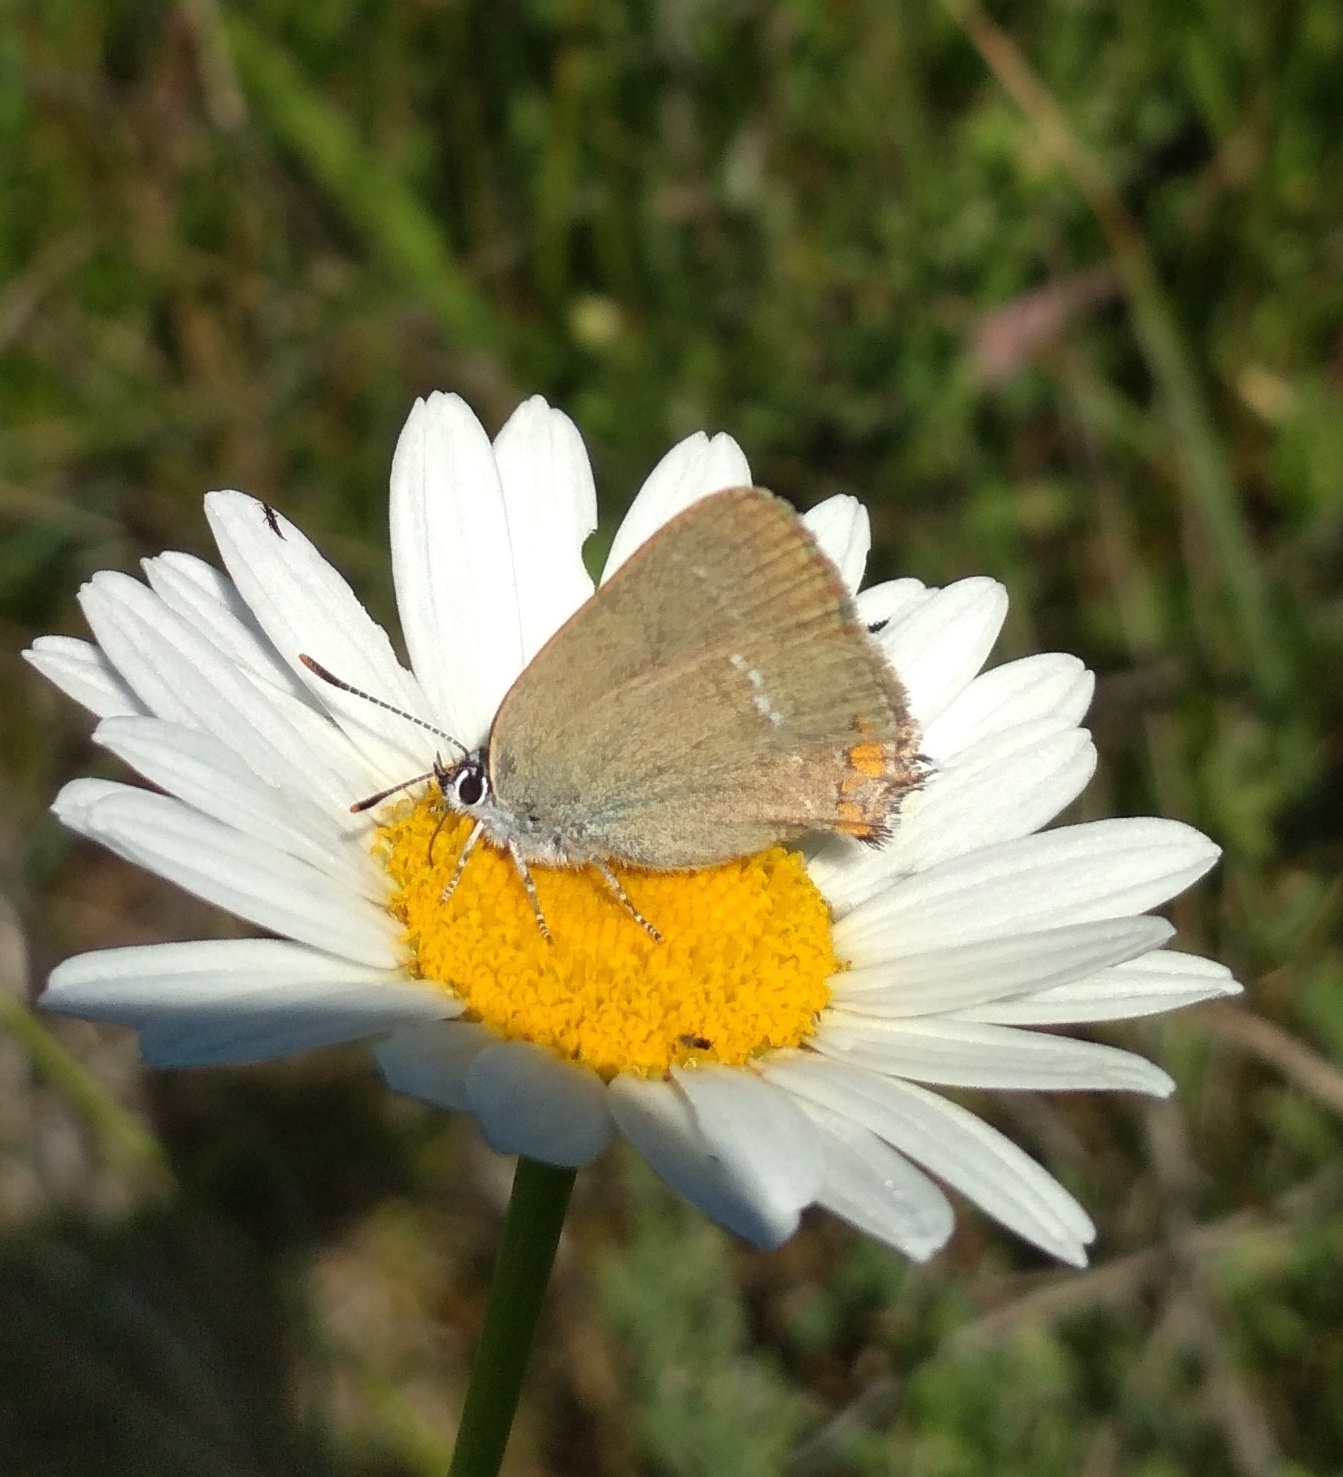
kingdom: Animalia
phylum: Arthropoda
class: Insecta
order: Lepidoptera
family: Lycaenidae
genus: Strymon
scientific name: Strymon acaciae
